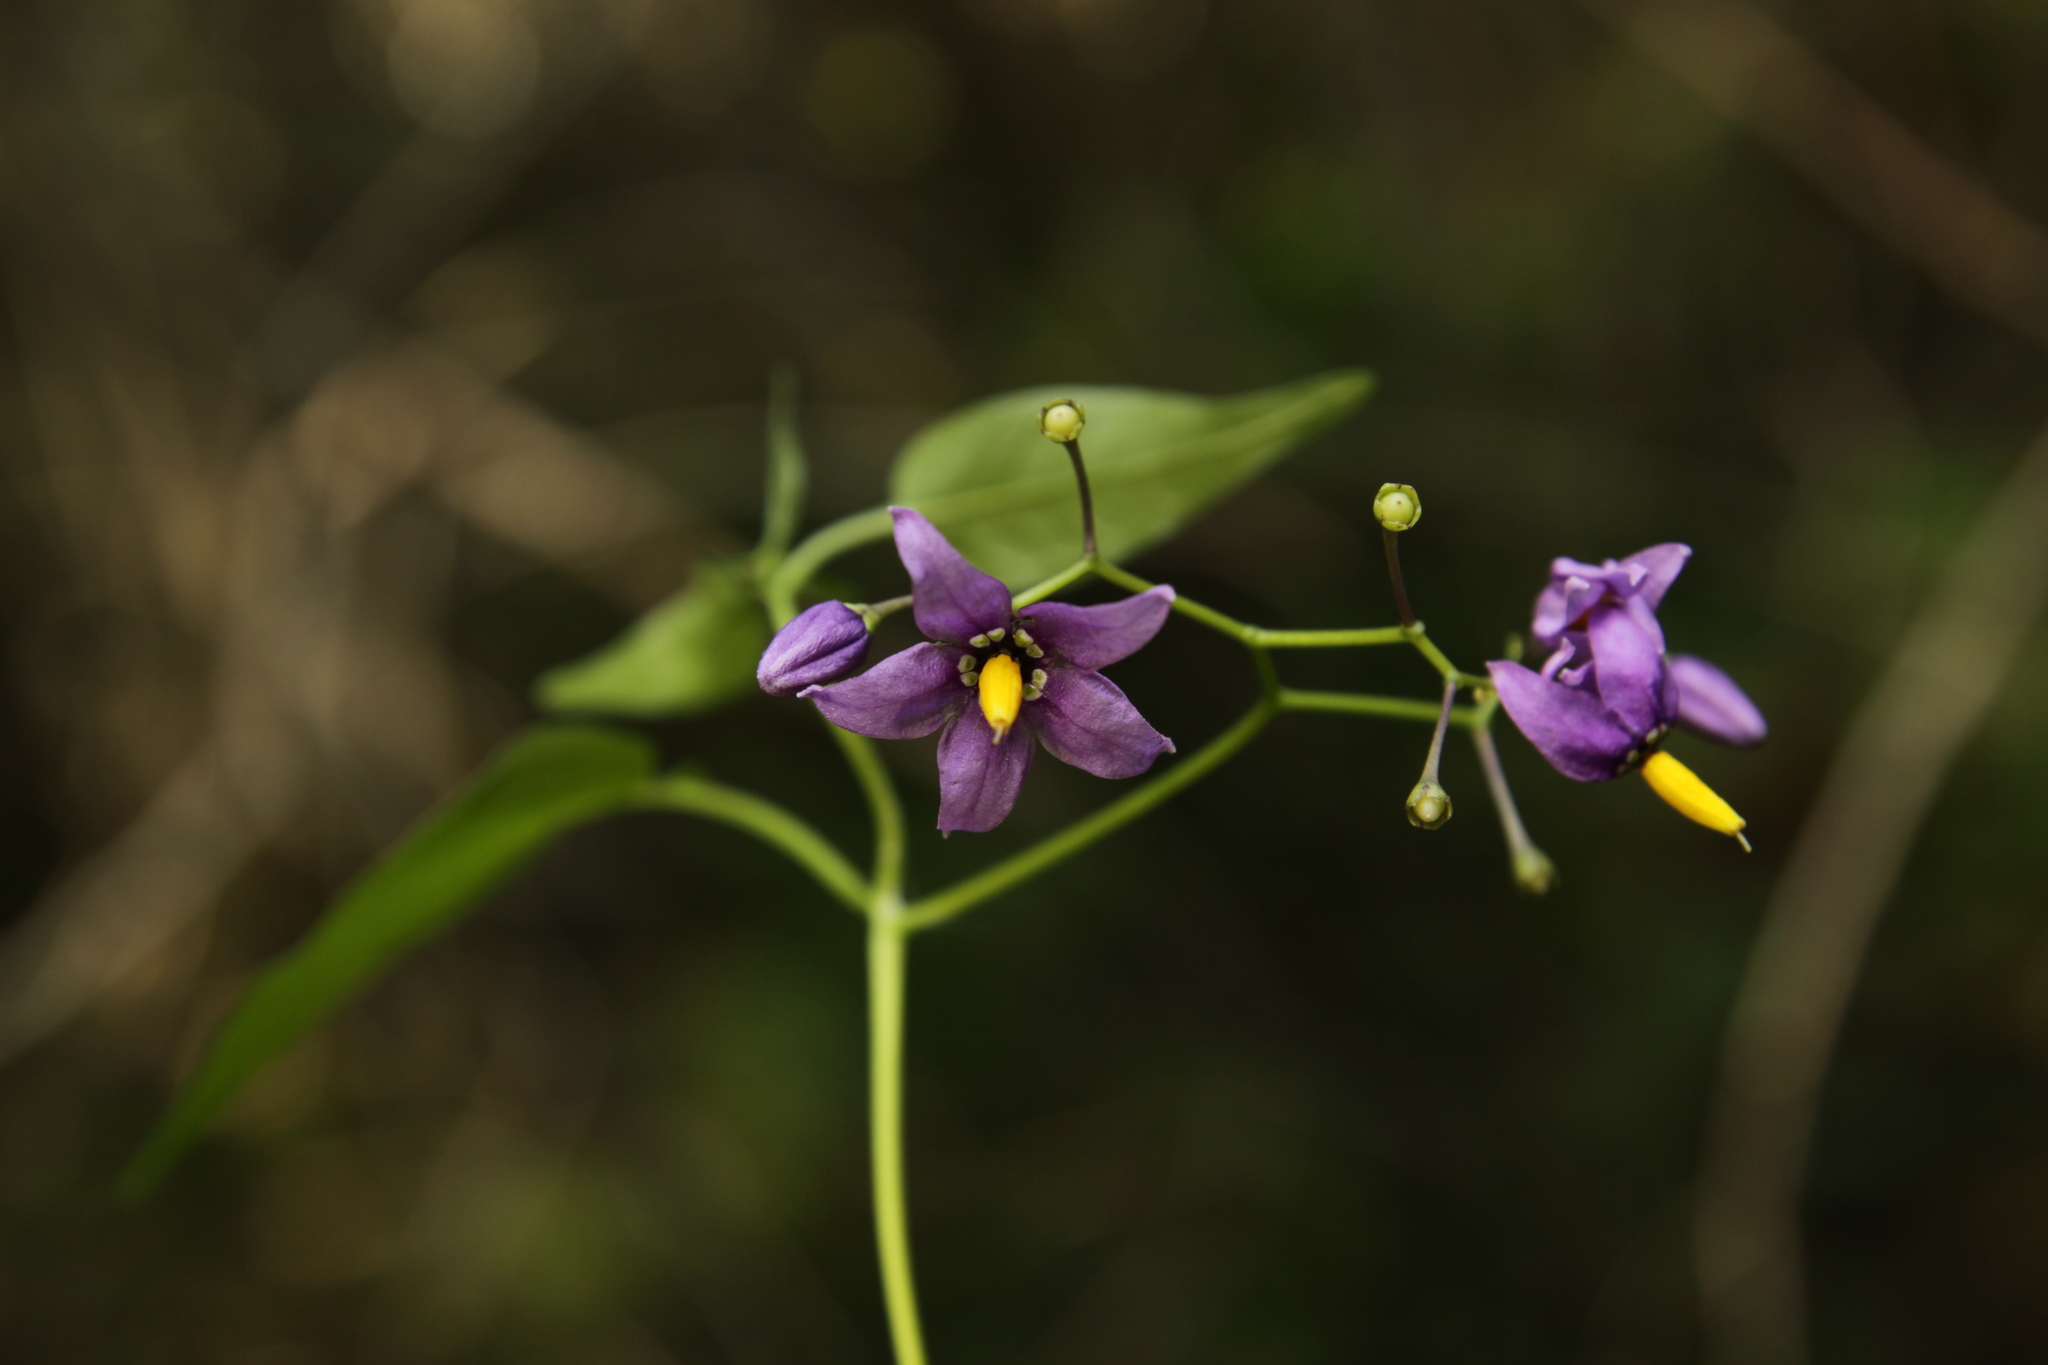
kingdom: Plantae
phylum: Tracheophyta
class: Magnoliopsida
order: Solanales
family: Solanaceae
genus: Solanum
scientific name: Solanum dulcamara
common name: Climbing nightshade
